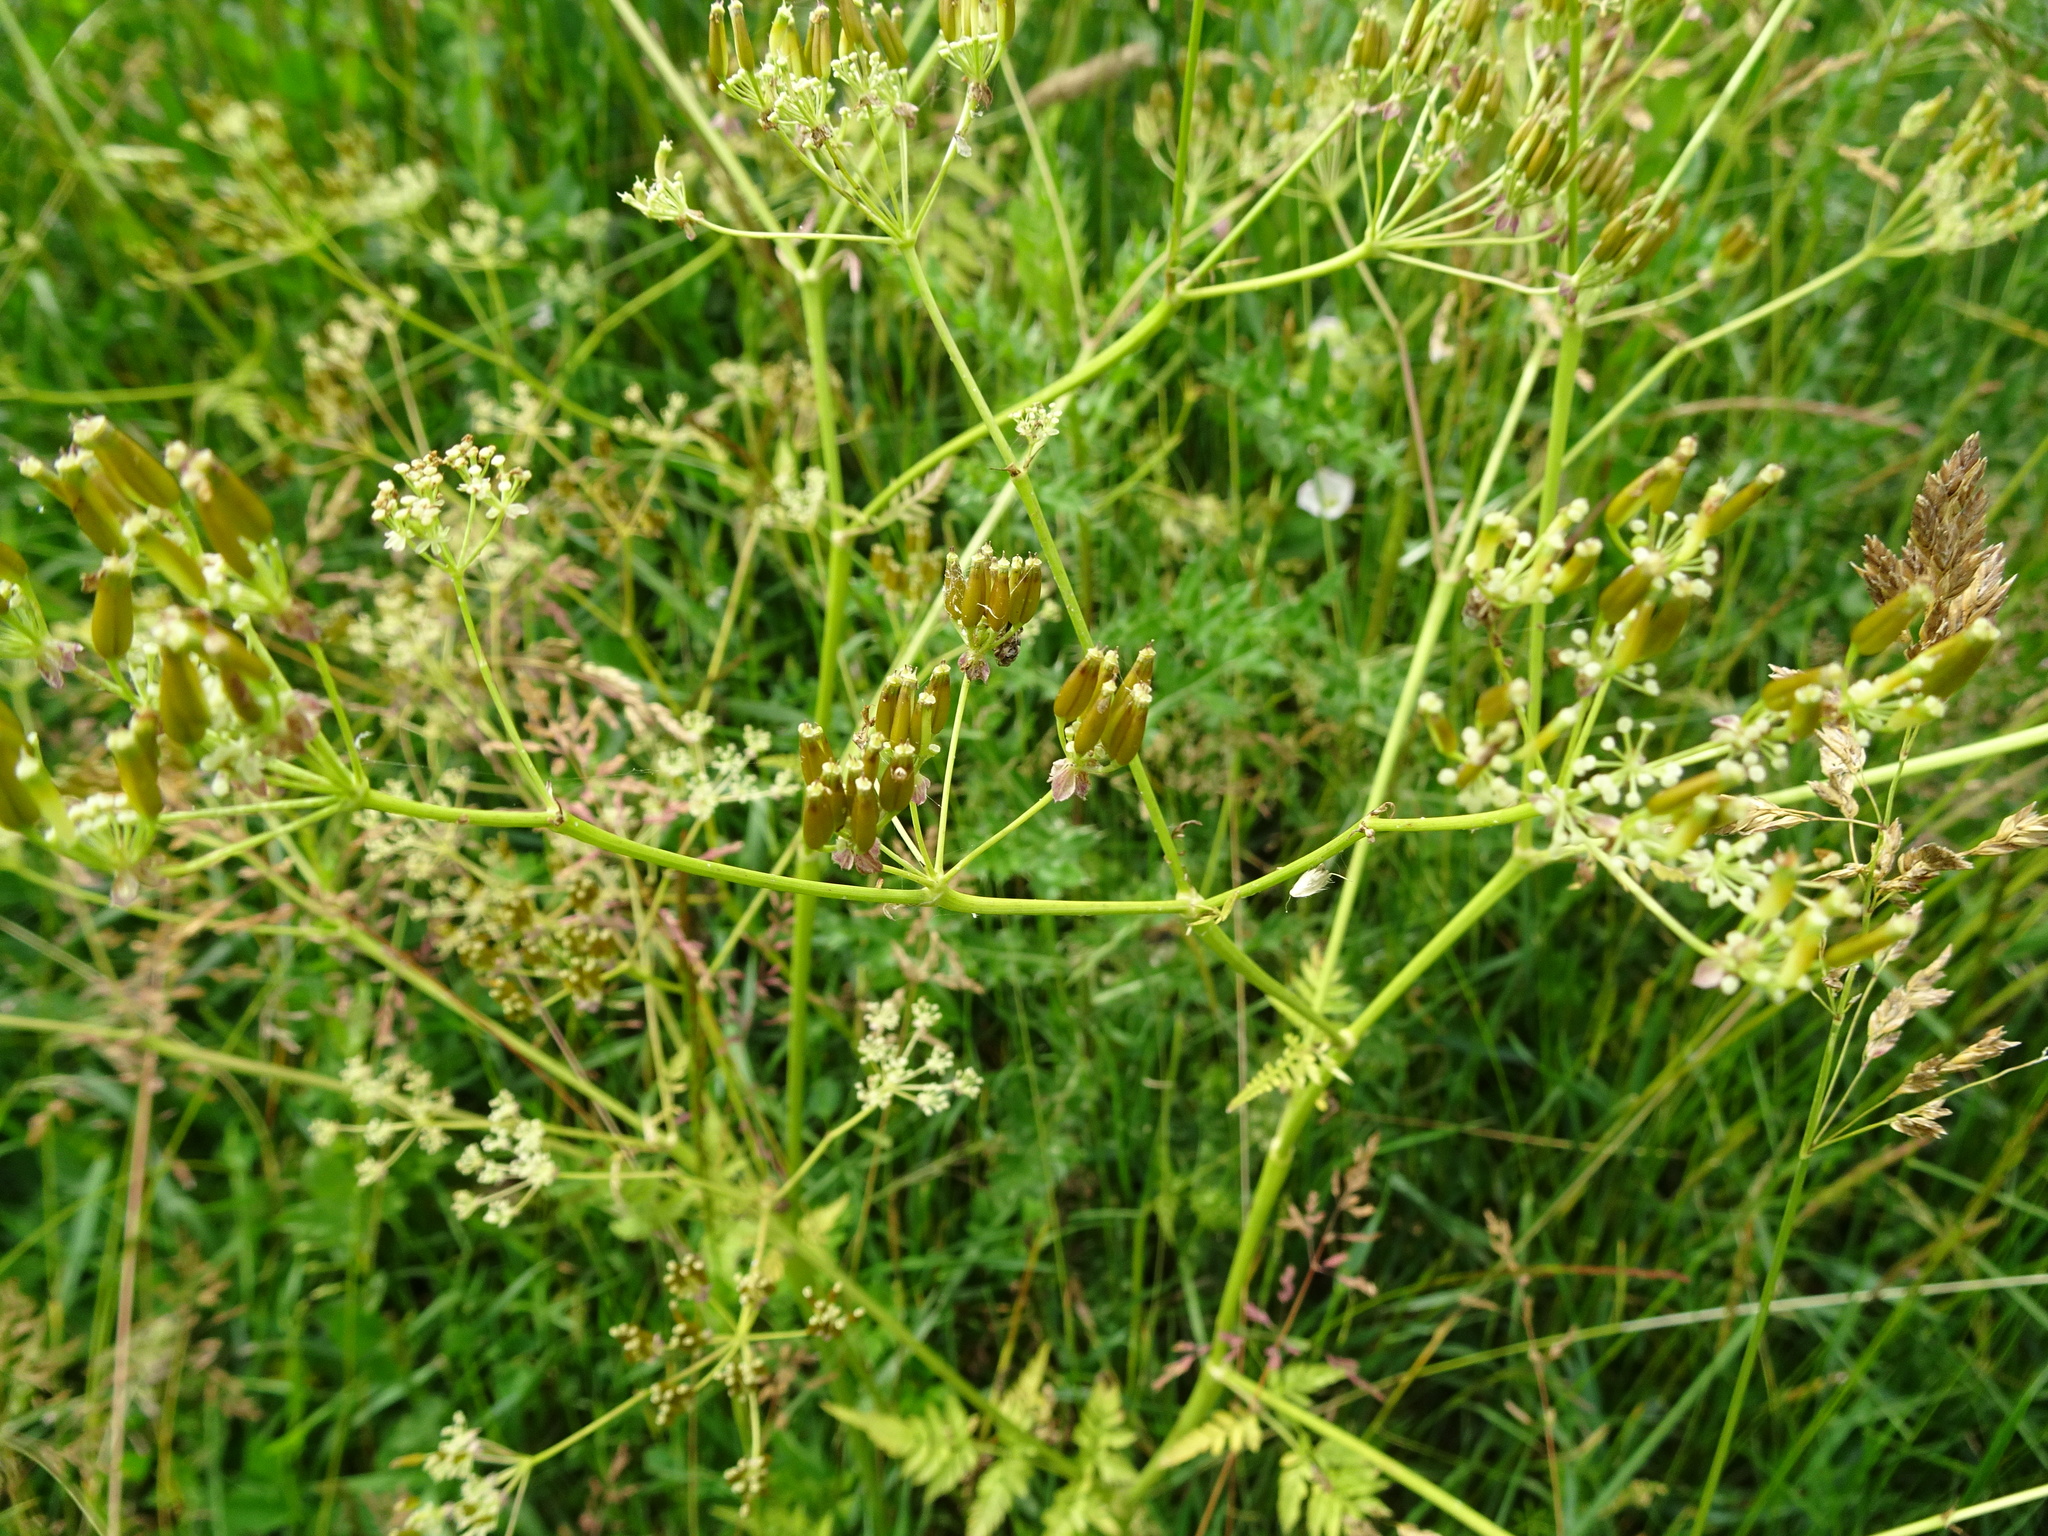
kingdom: Plantae
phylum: Tracheophyta
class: Magnoliopsida
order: Apiales
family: Apiaceae
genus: Anthriscus
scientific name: Anthriscus sylvestris
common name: Cow parsley
